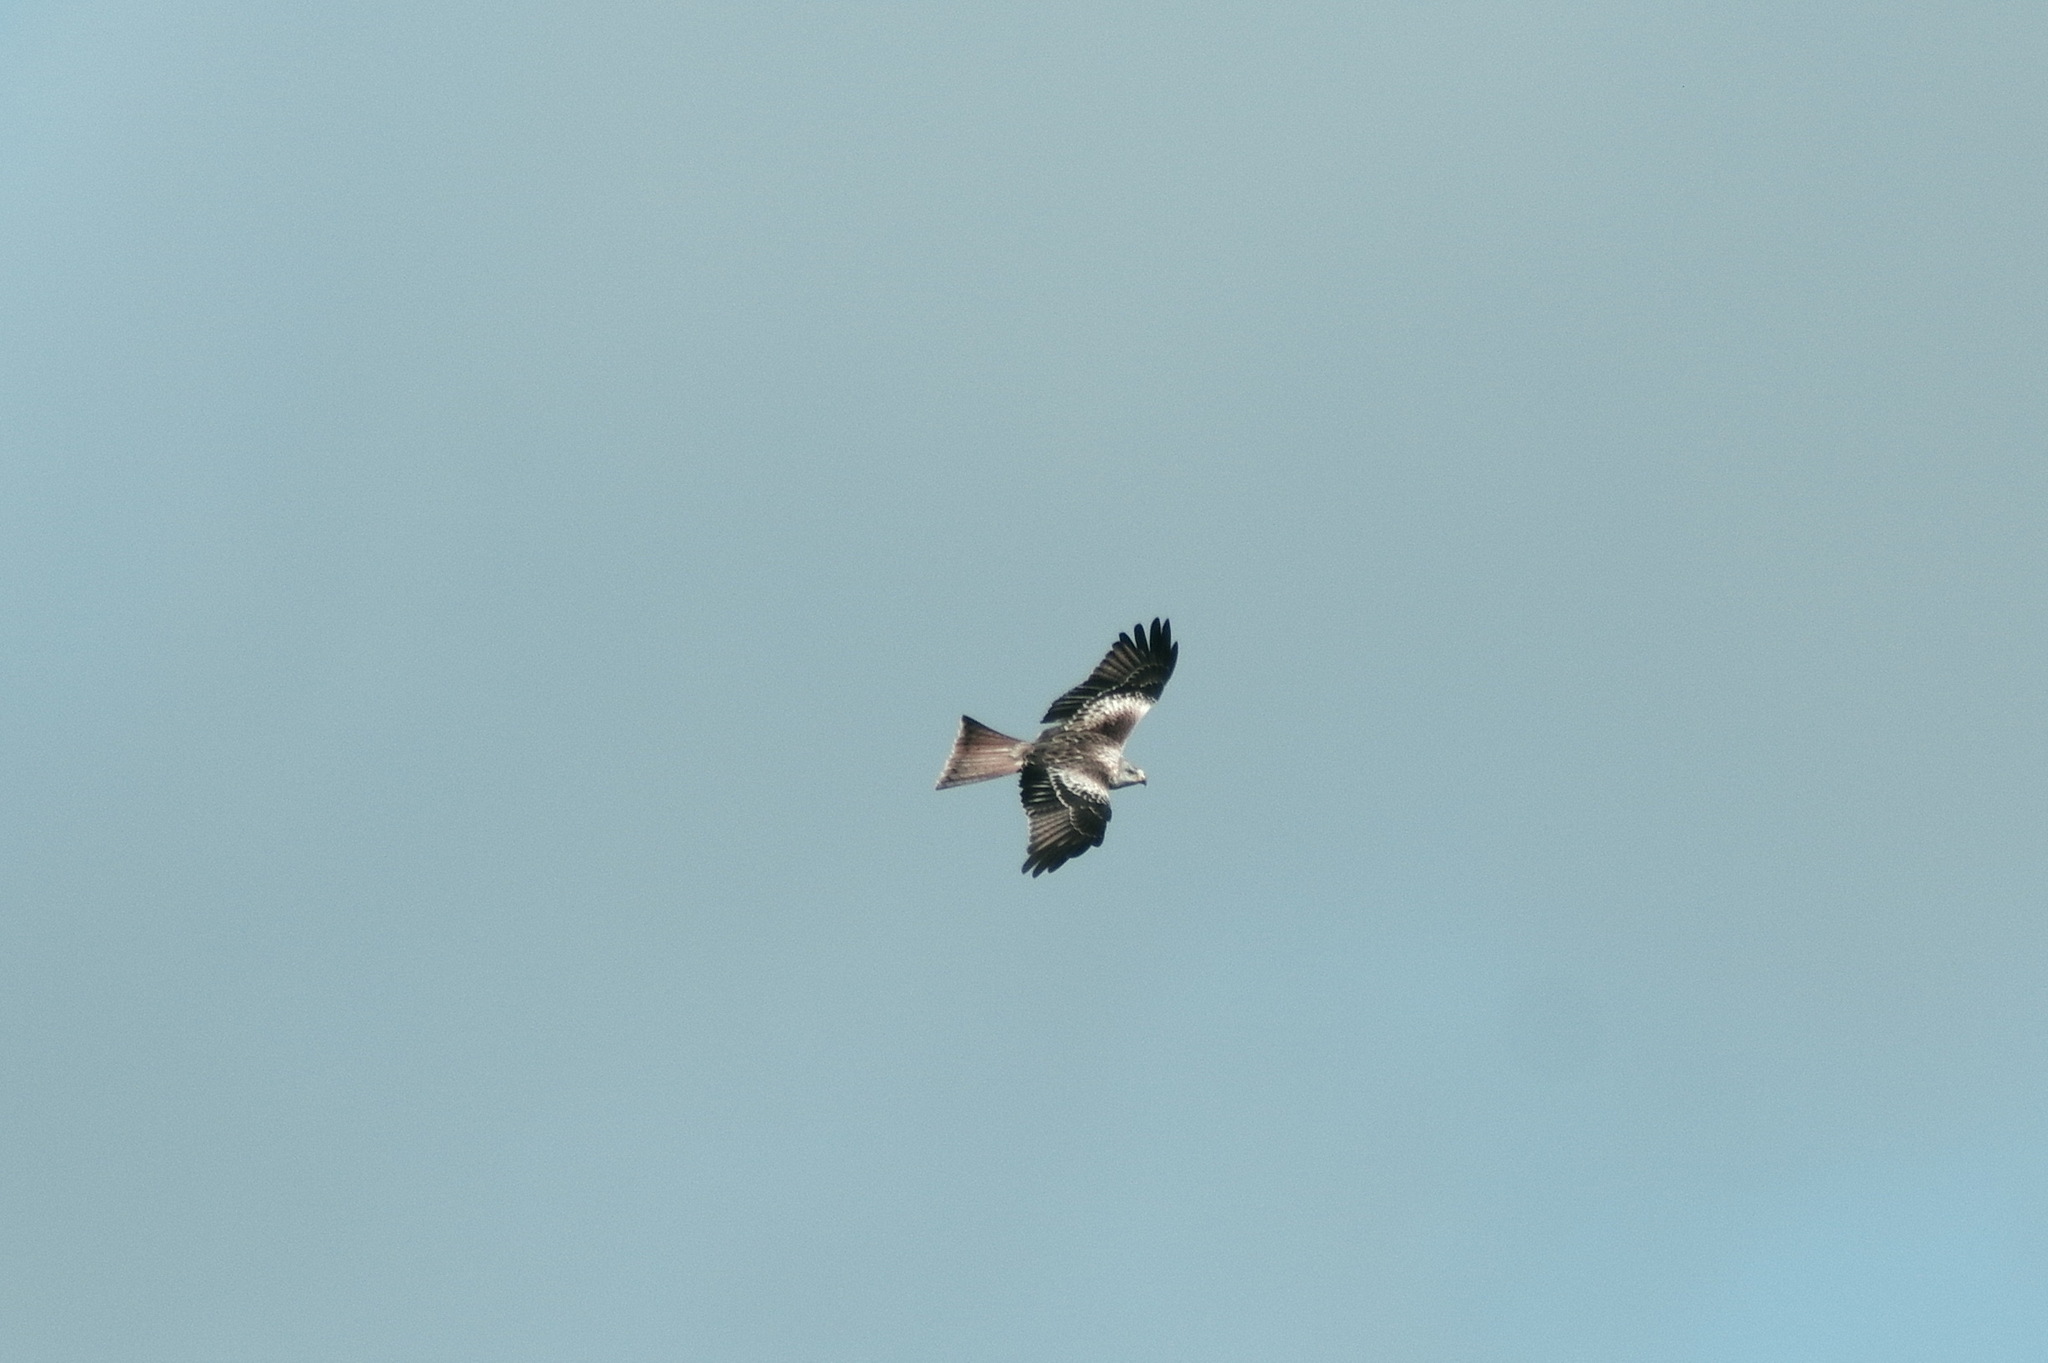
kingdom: Animalia
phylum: Chordata
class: Aves
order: Accipitriformes
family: Accipitridae
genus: Milvus
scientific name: Milvus milvus
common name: Red kite
